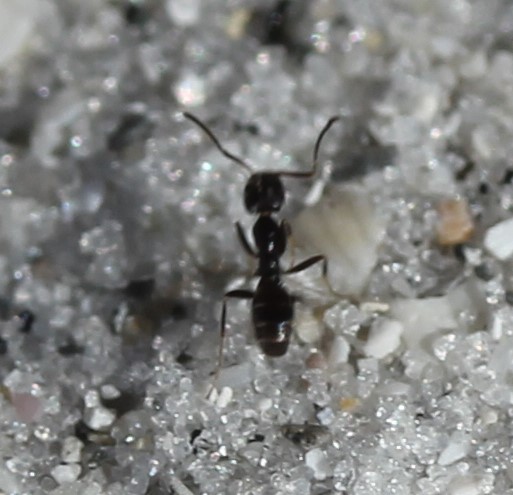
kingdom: Animalia
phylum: Arthropoda
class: Insecta
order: Hymenoptera
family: Formicidae
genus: Forelius
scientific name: Forelius pruinosus
